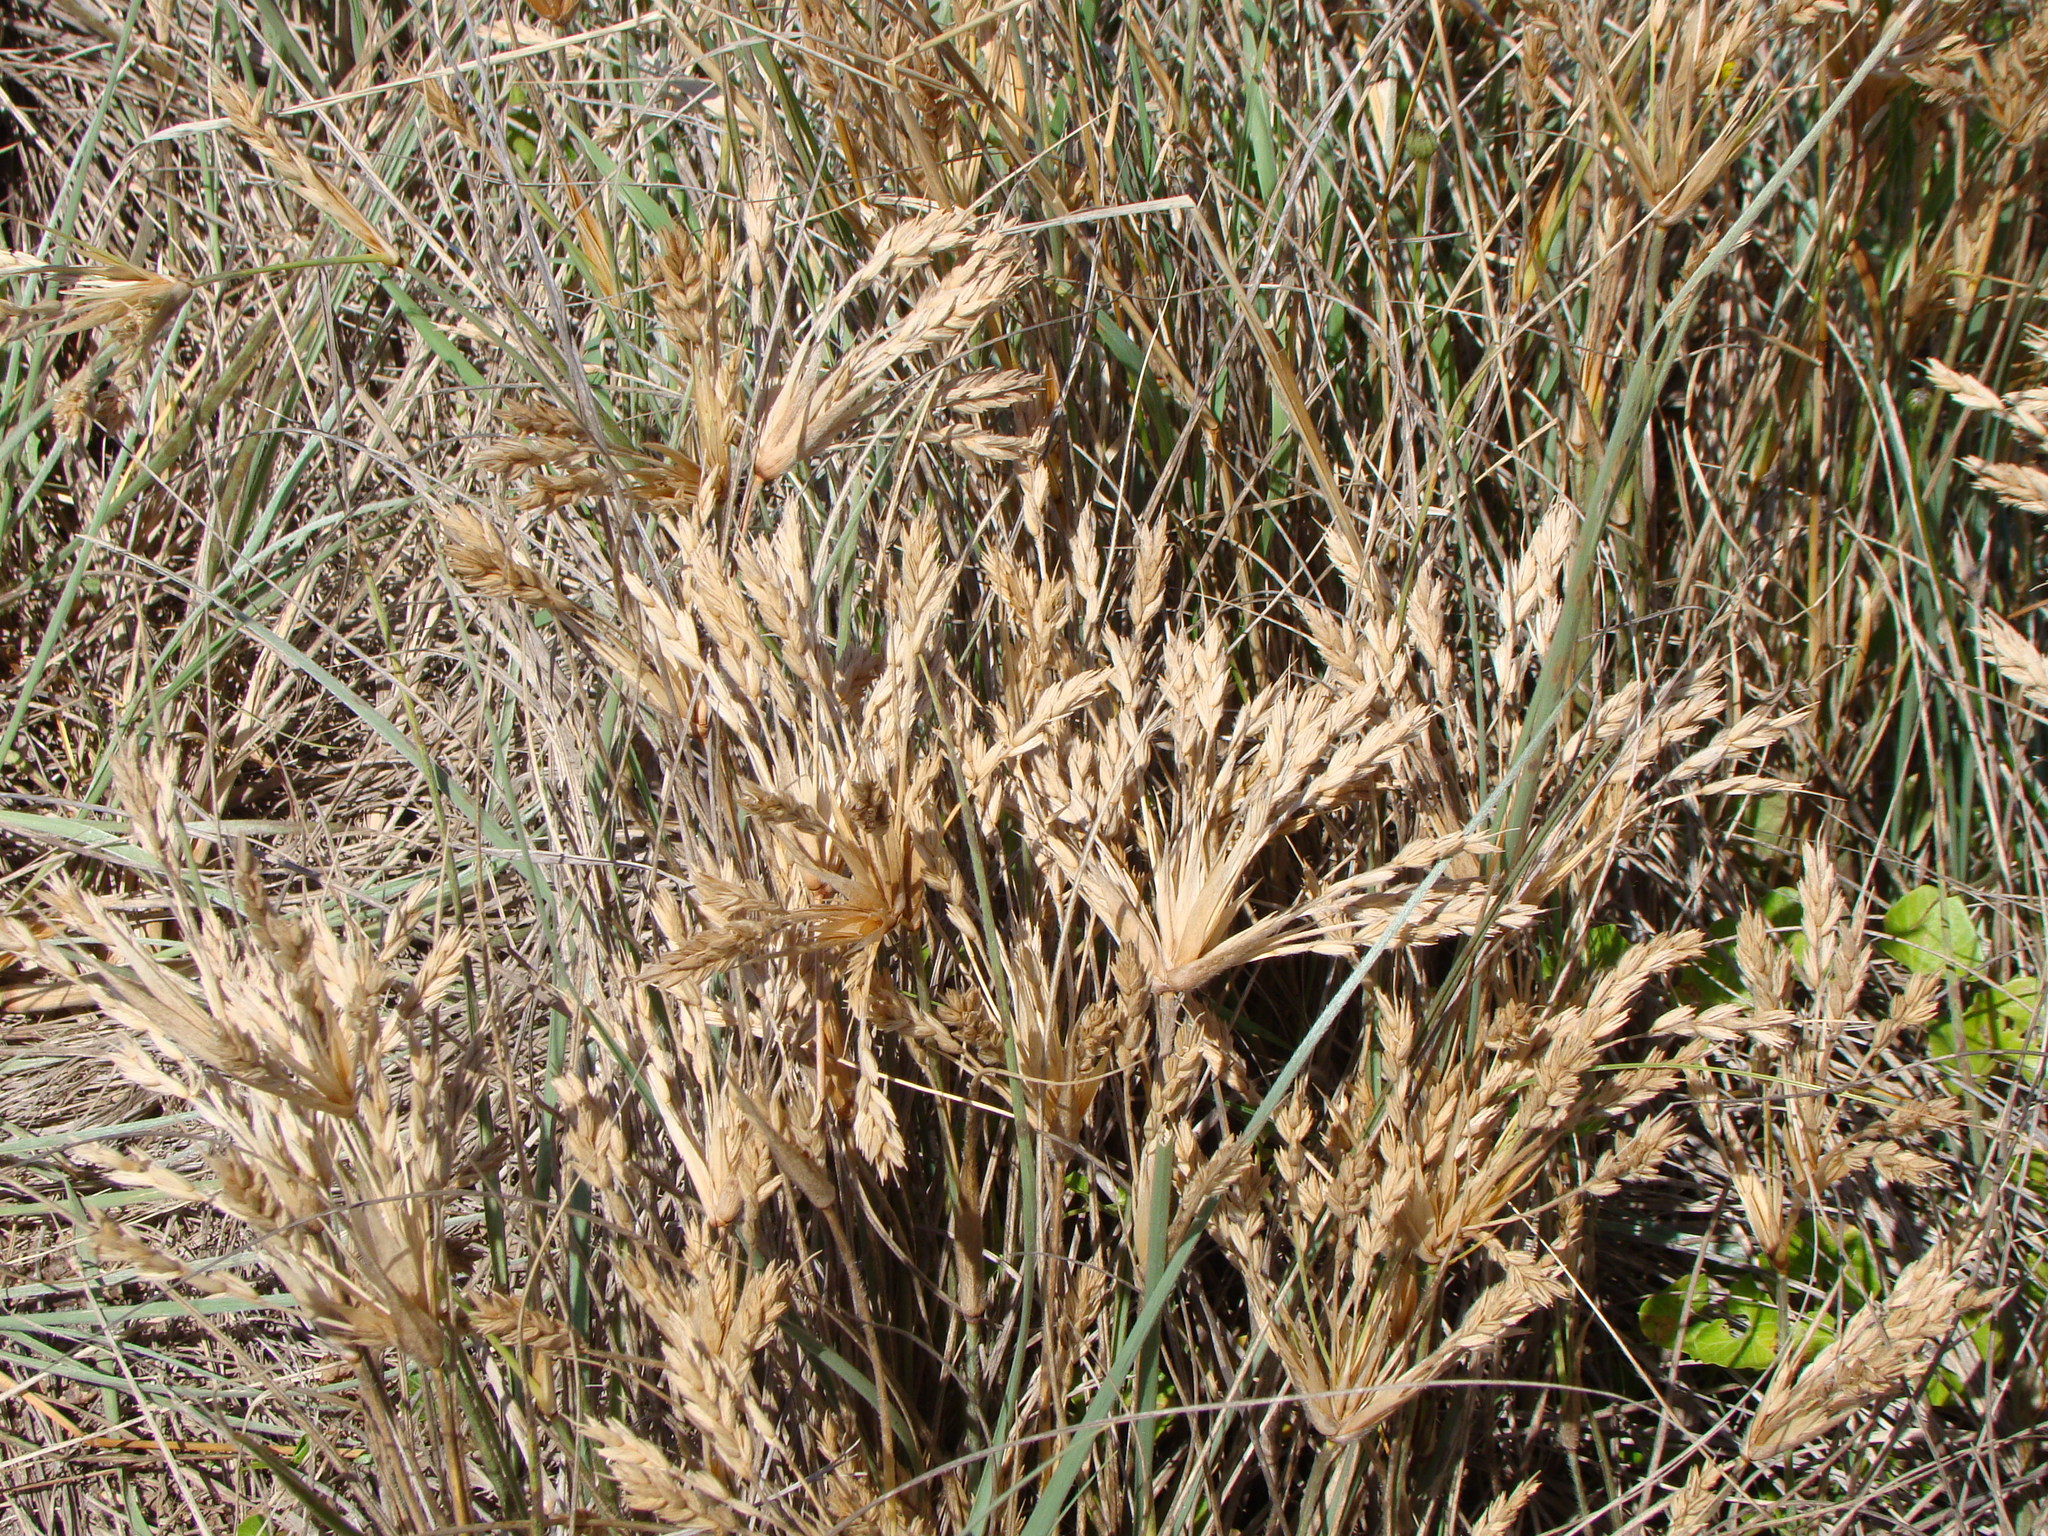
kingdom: Plantae
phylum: Tracheophyta
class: Liliopsida
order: Poales
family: Poaceae
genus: Spinifex
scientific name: Spinifex sericeus
